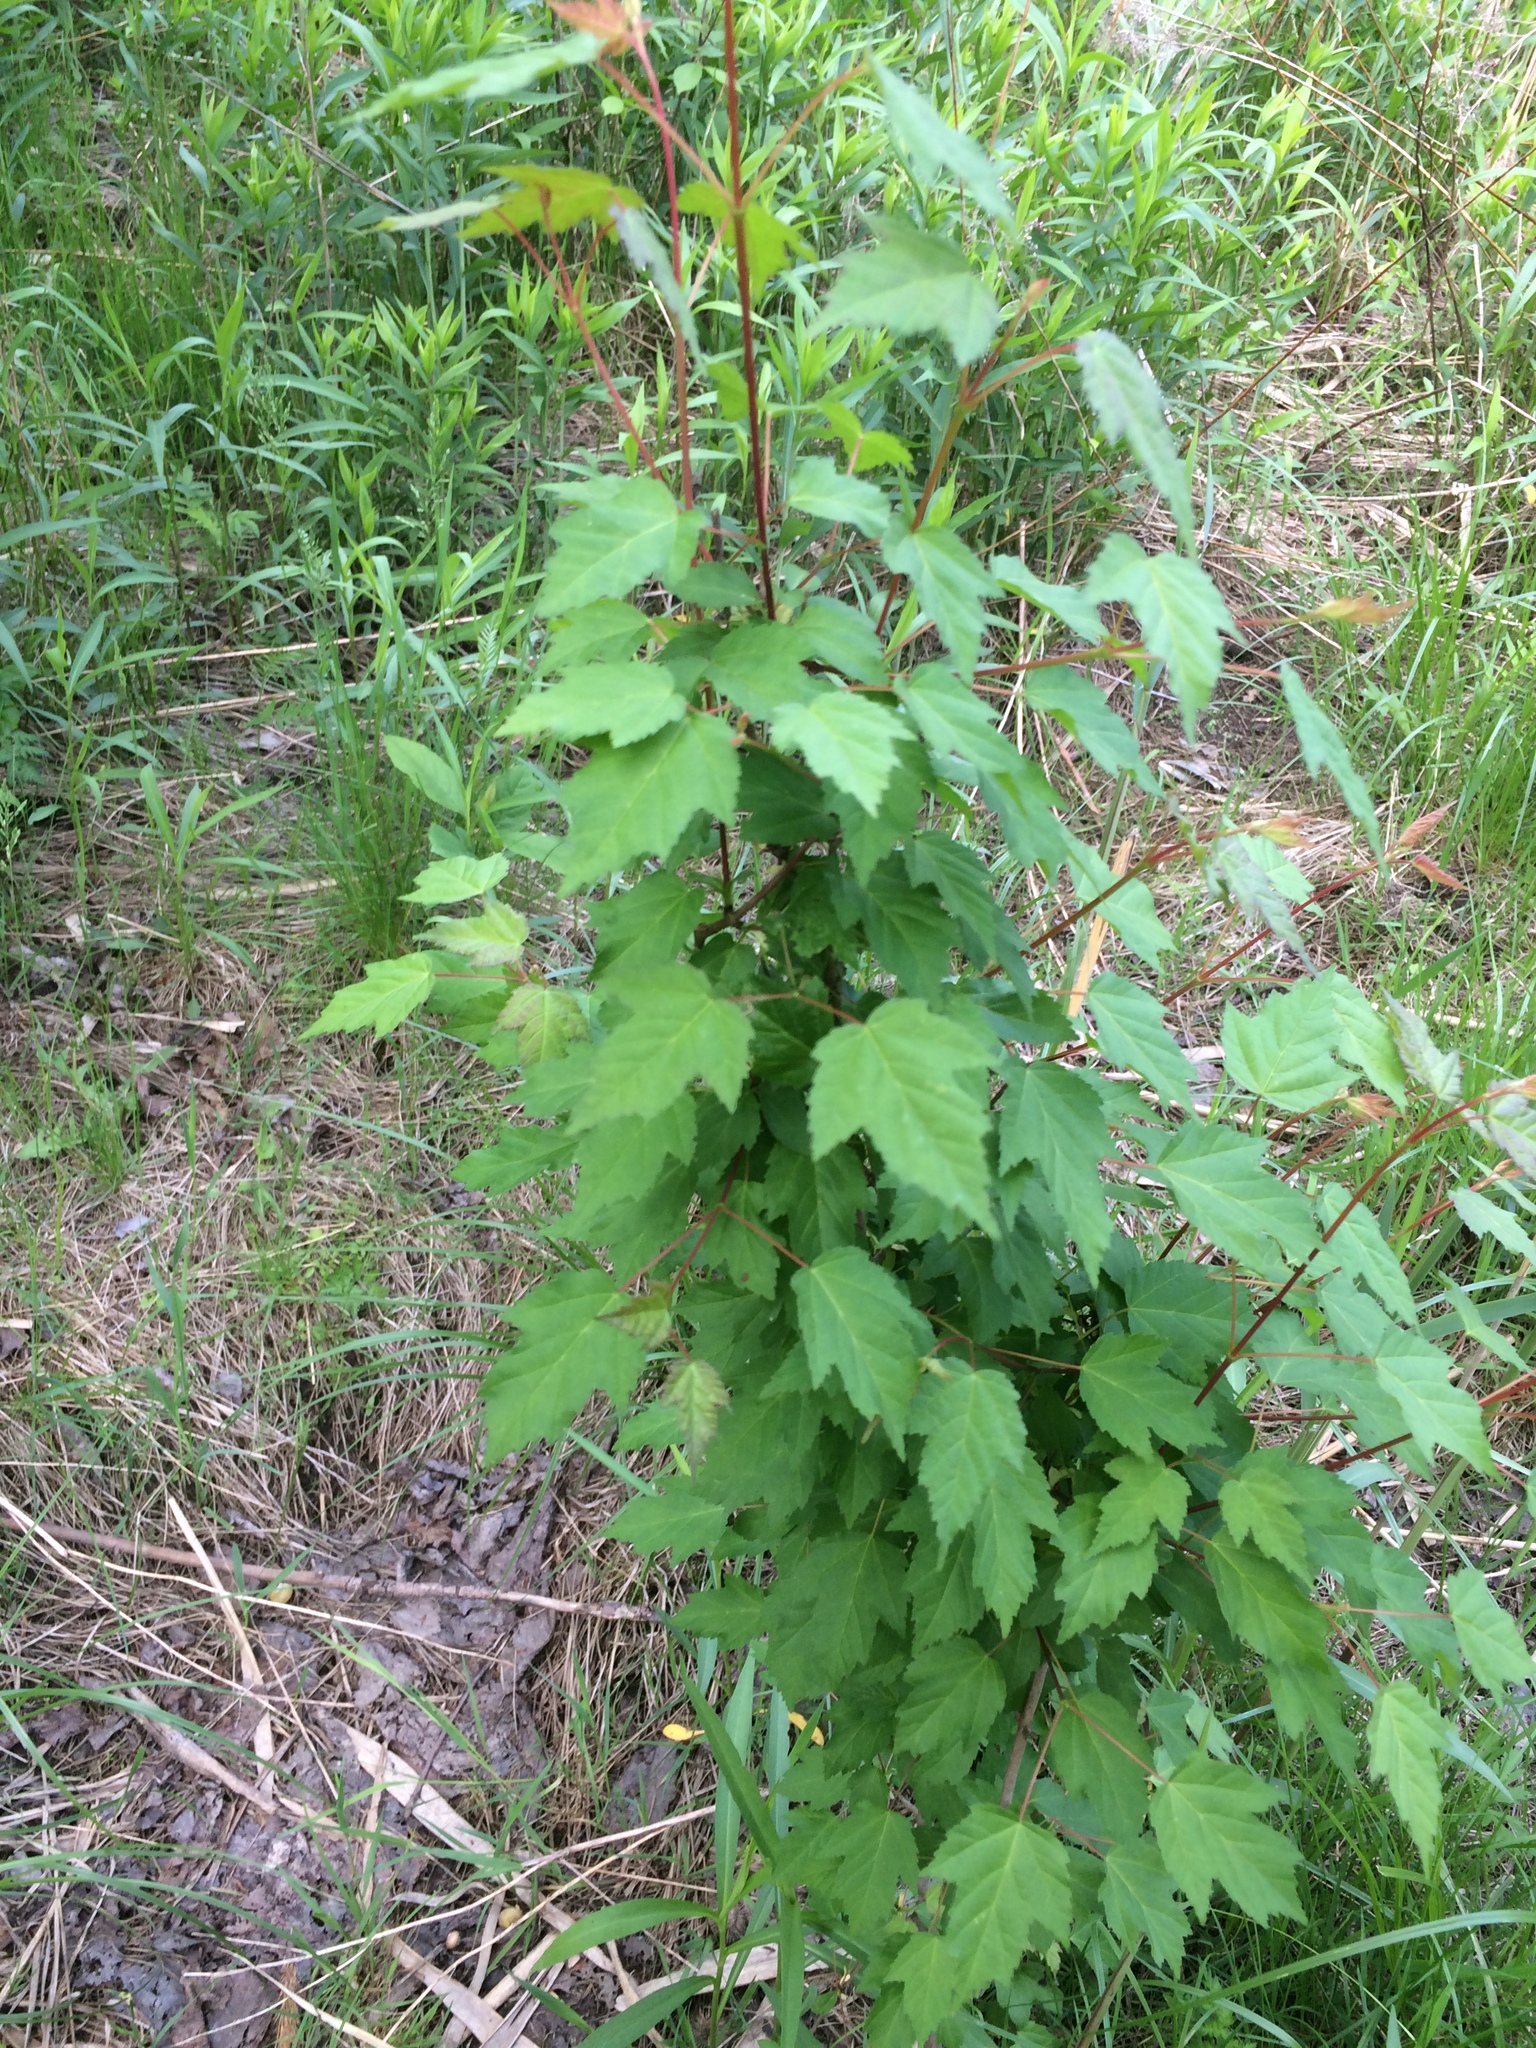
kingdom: Plantae
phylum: Tracheophyta
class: Magnoliopsida
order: Sapindales
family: Sapindaceae
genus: Acer
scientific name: Acer tataricum
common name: Tartar maple
